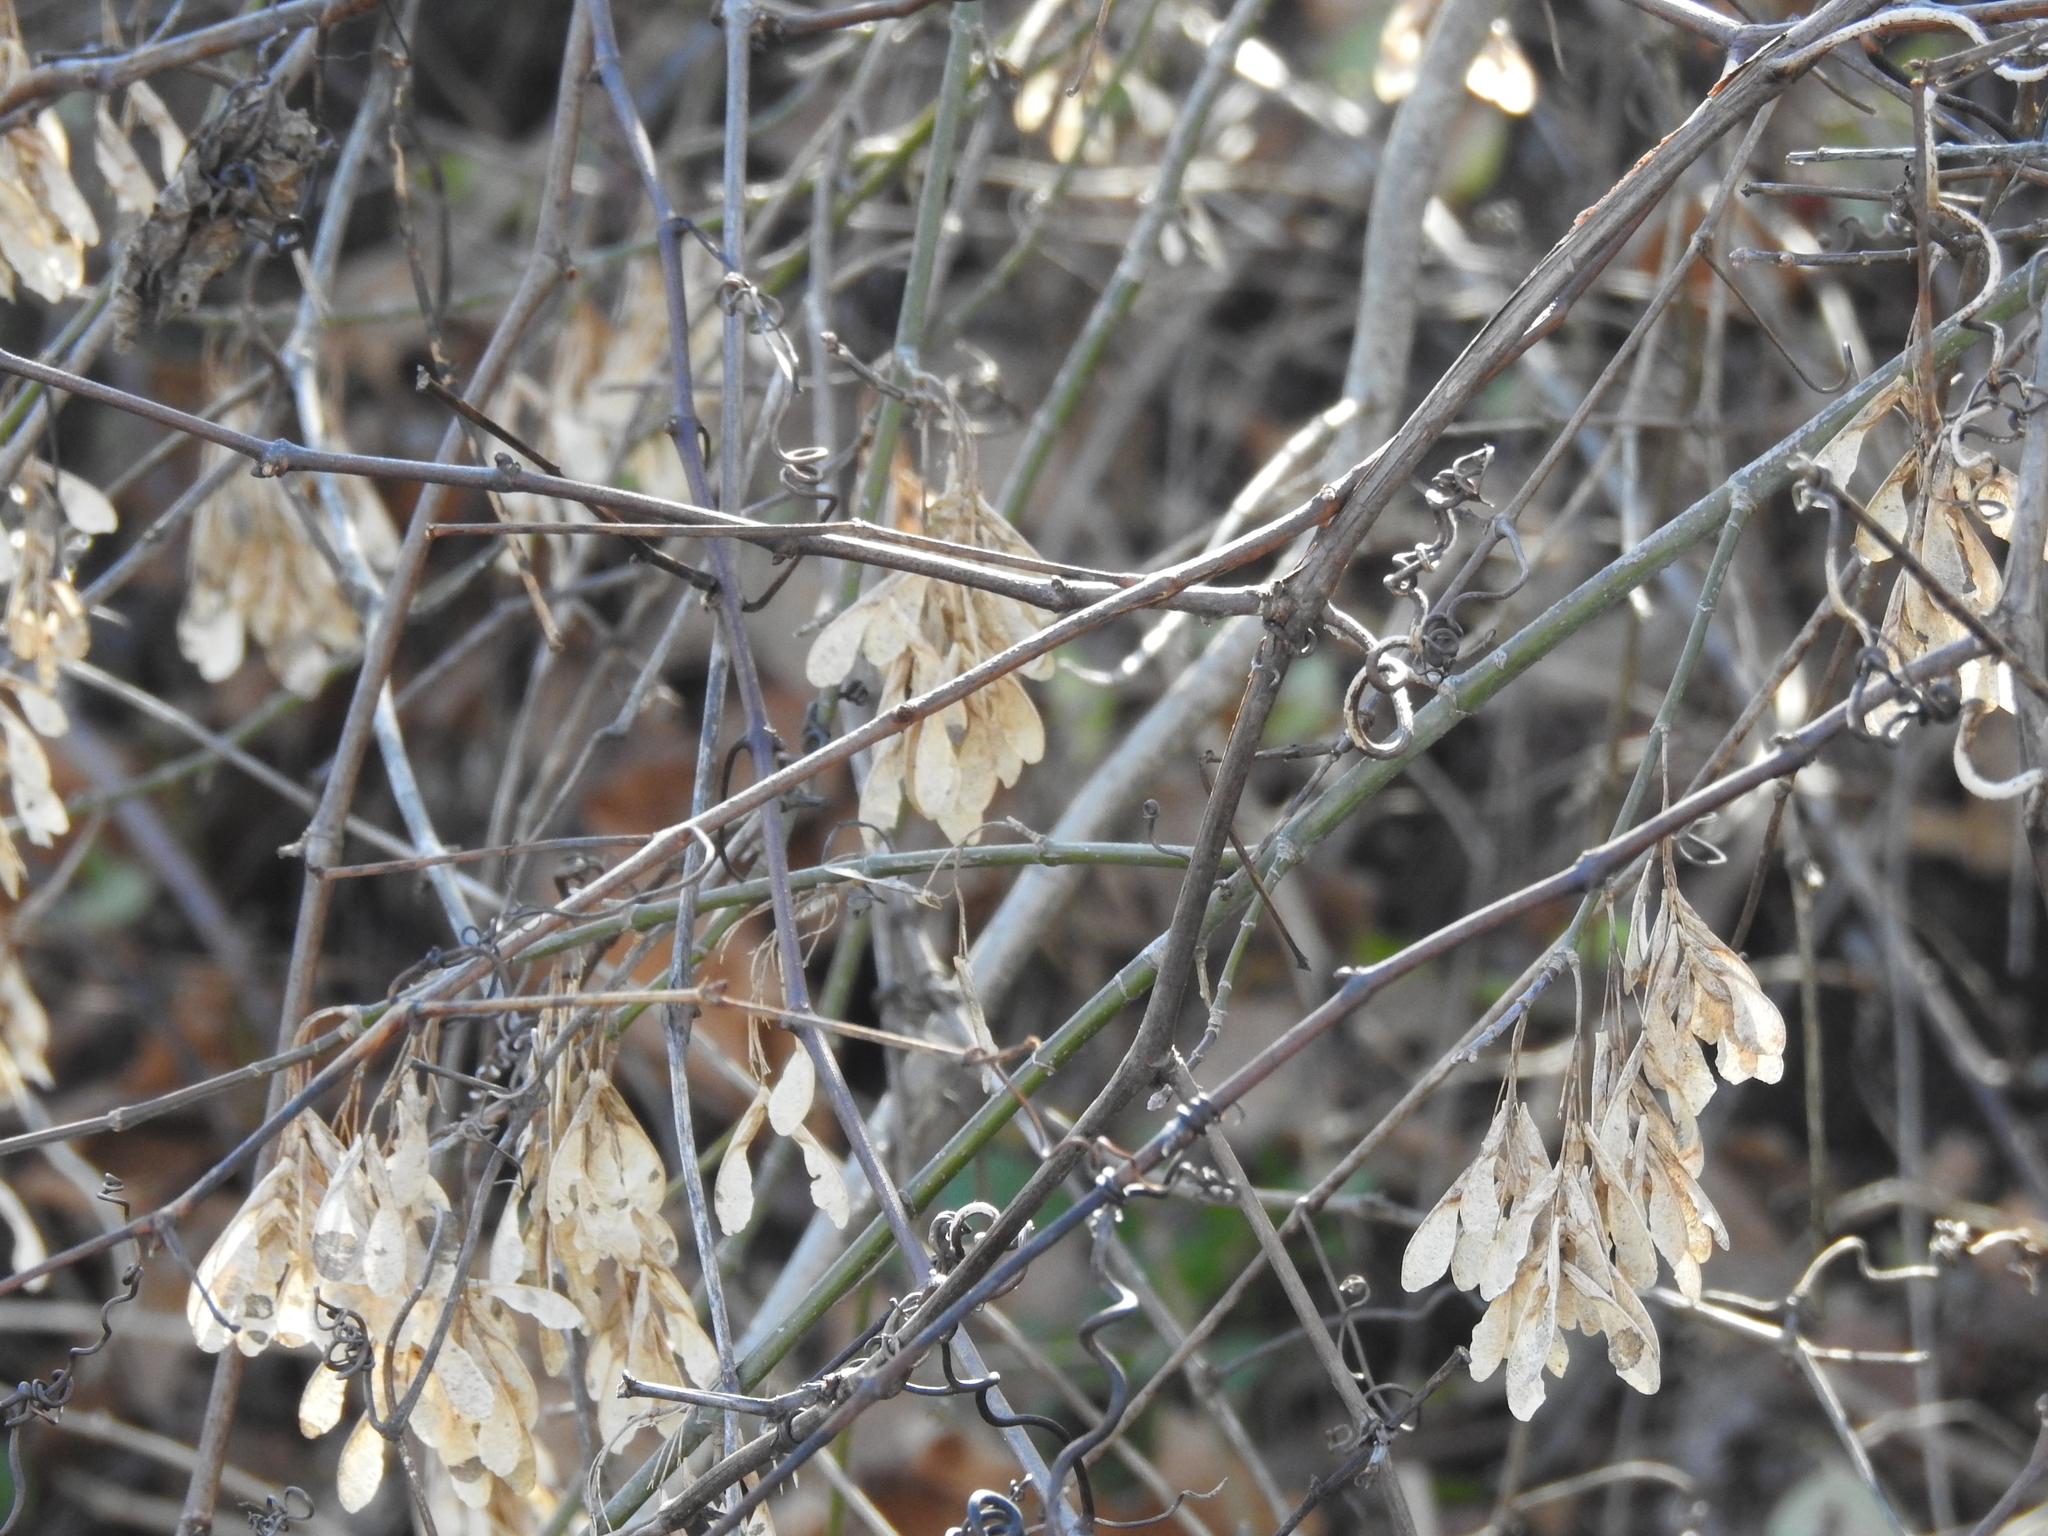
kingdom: Plantae
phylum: Tracheophyta
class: Magnoliopsida
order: Sapindales
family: Sapindaceae
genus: Acer
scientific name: Acer negundo
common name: Ashleaf maple
